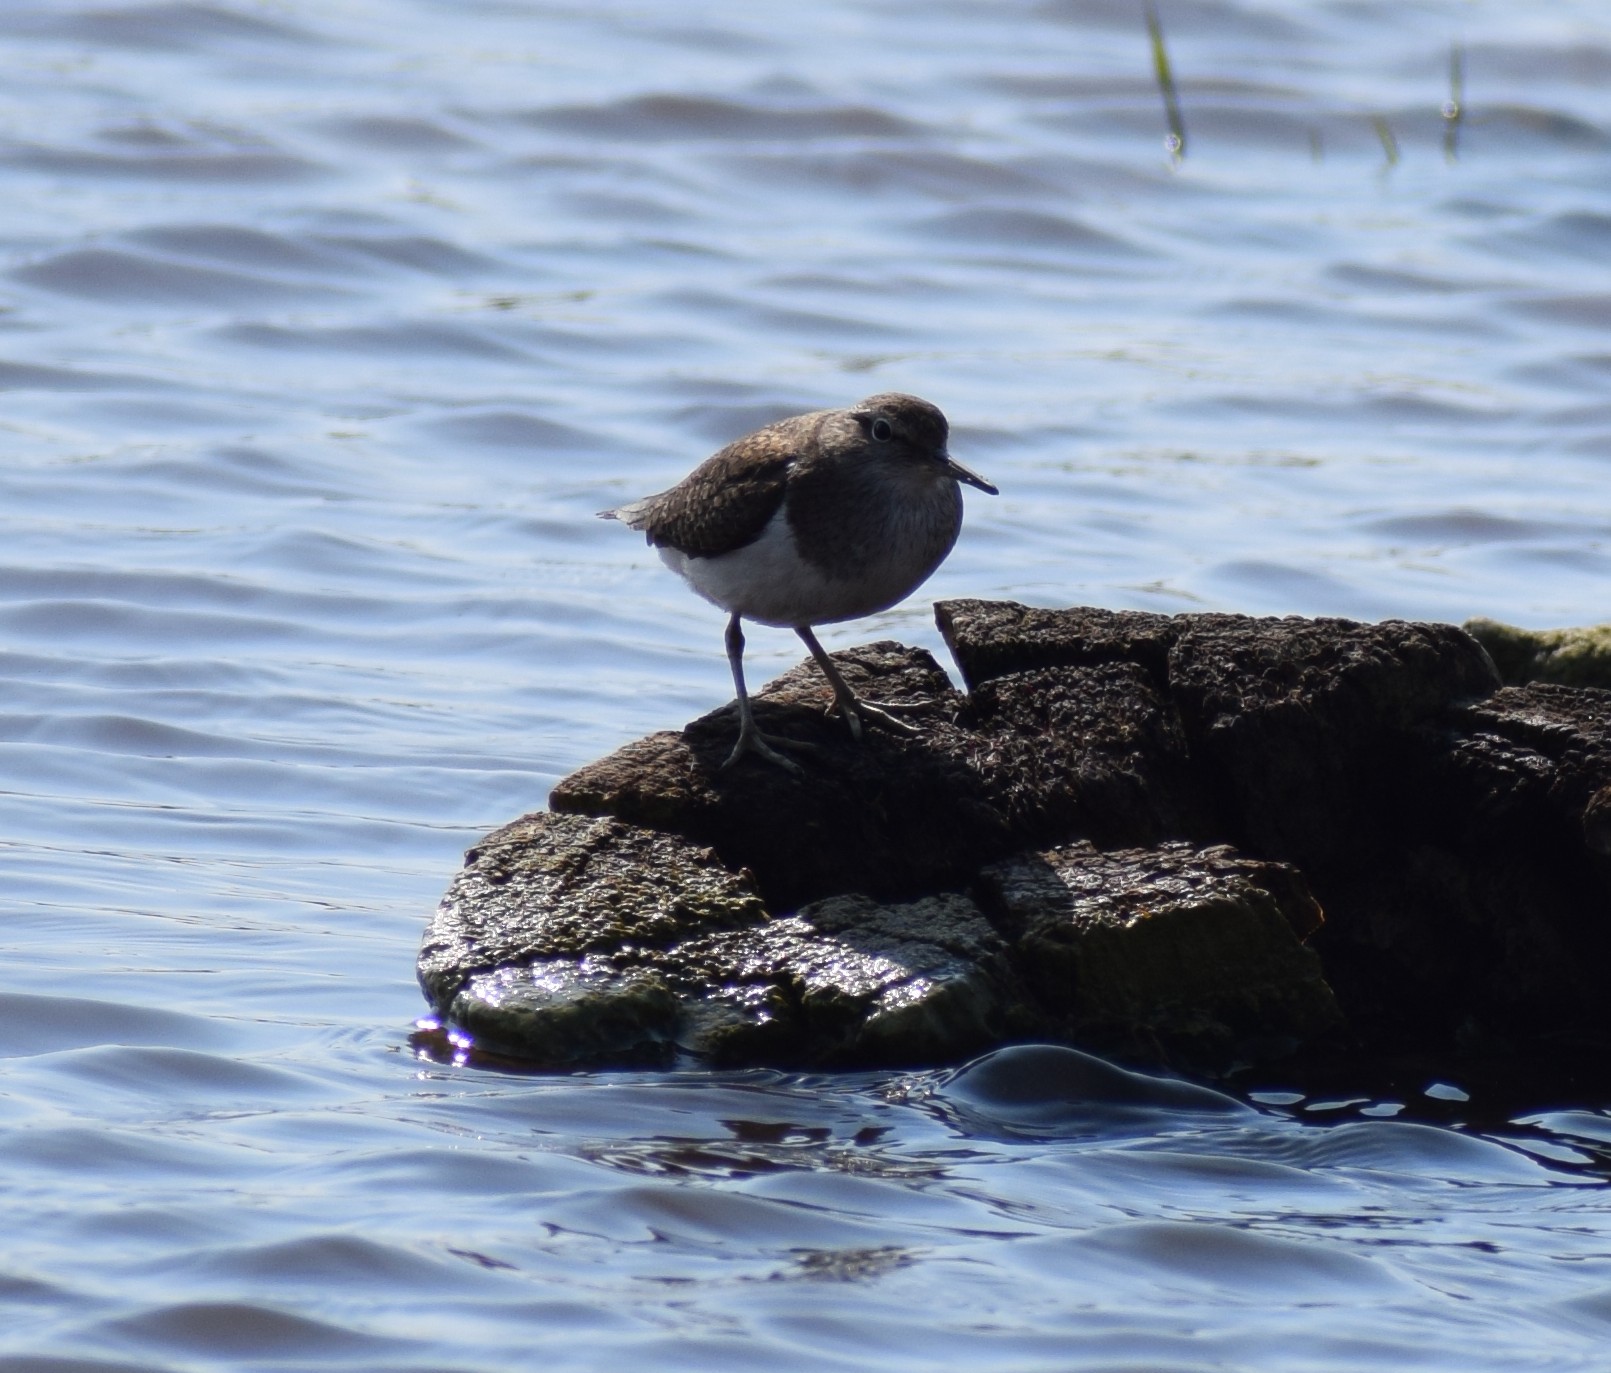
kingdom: Animalia
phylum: Chordata
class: Aves
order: Charadriiformes
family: Scolopacidae
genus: Actitis
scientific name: Actitis hypoleucos
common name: Common sandpiper
